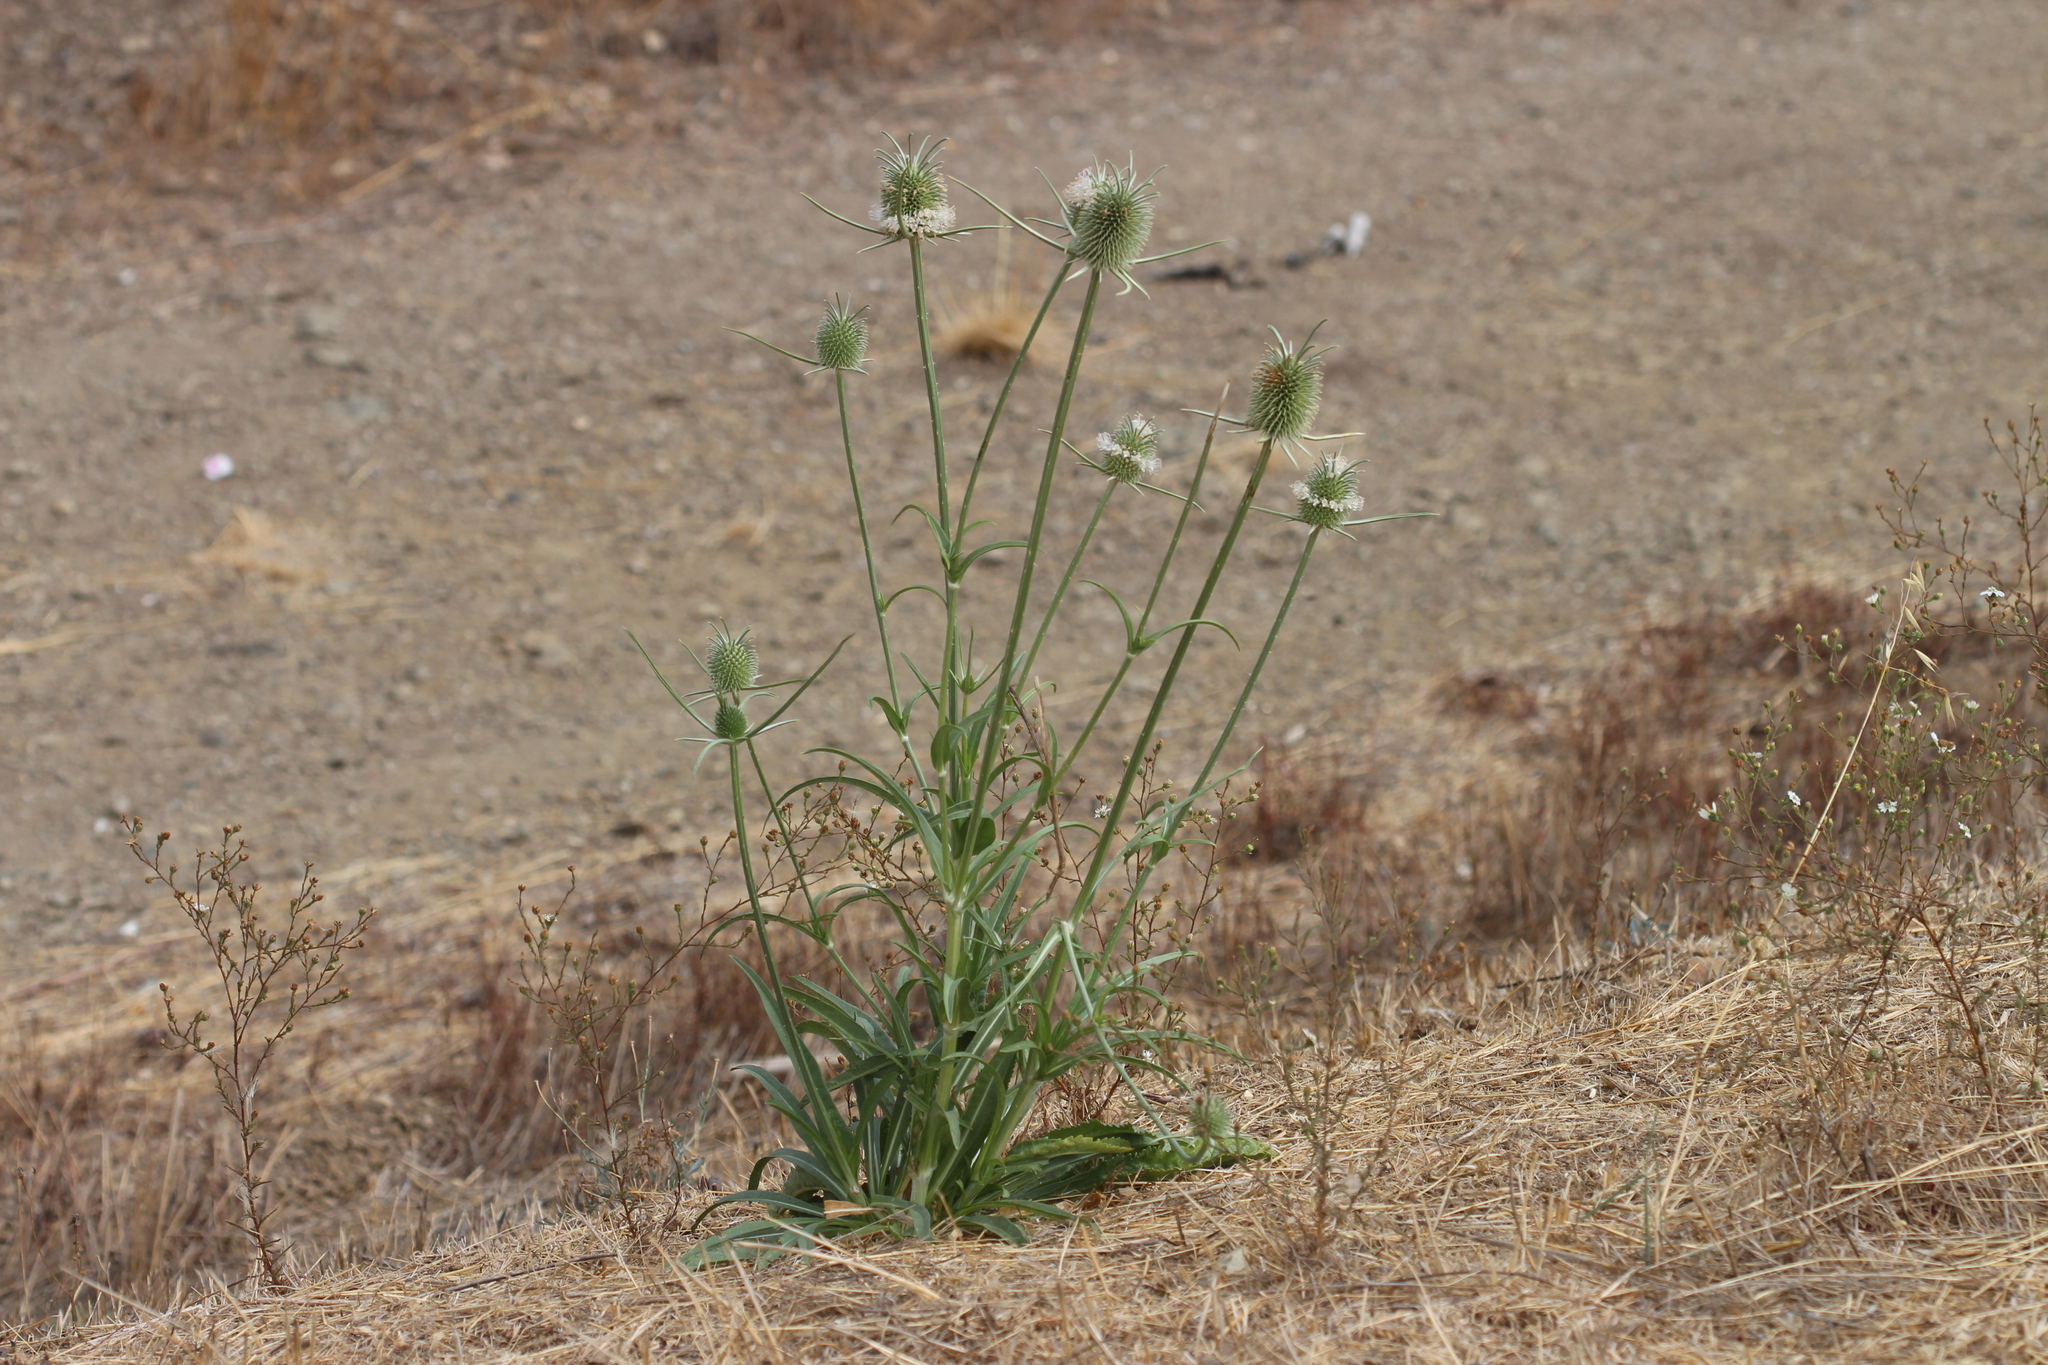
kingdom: Plantae
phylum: Tracheophyta
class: Magnoliopsida
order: Dipsacales
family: Caprifoliaceae
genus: Dipsacus
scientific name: Dipsacus sativus
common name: Fuller's teasel
